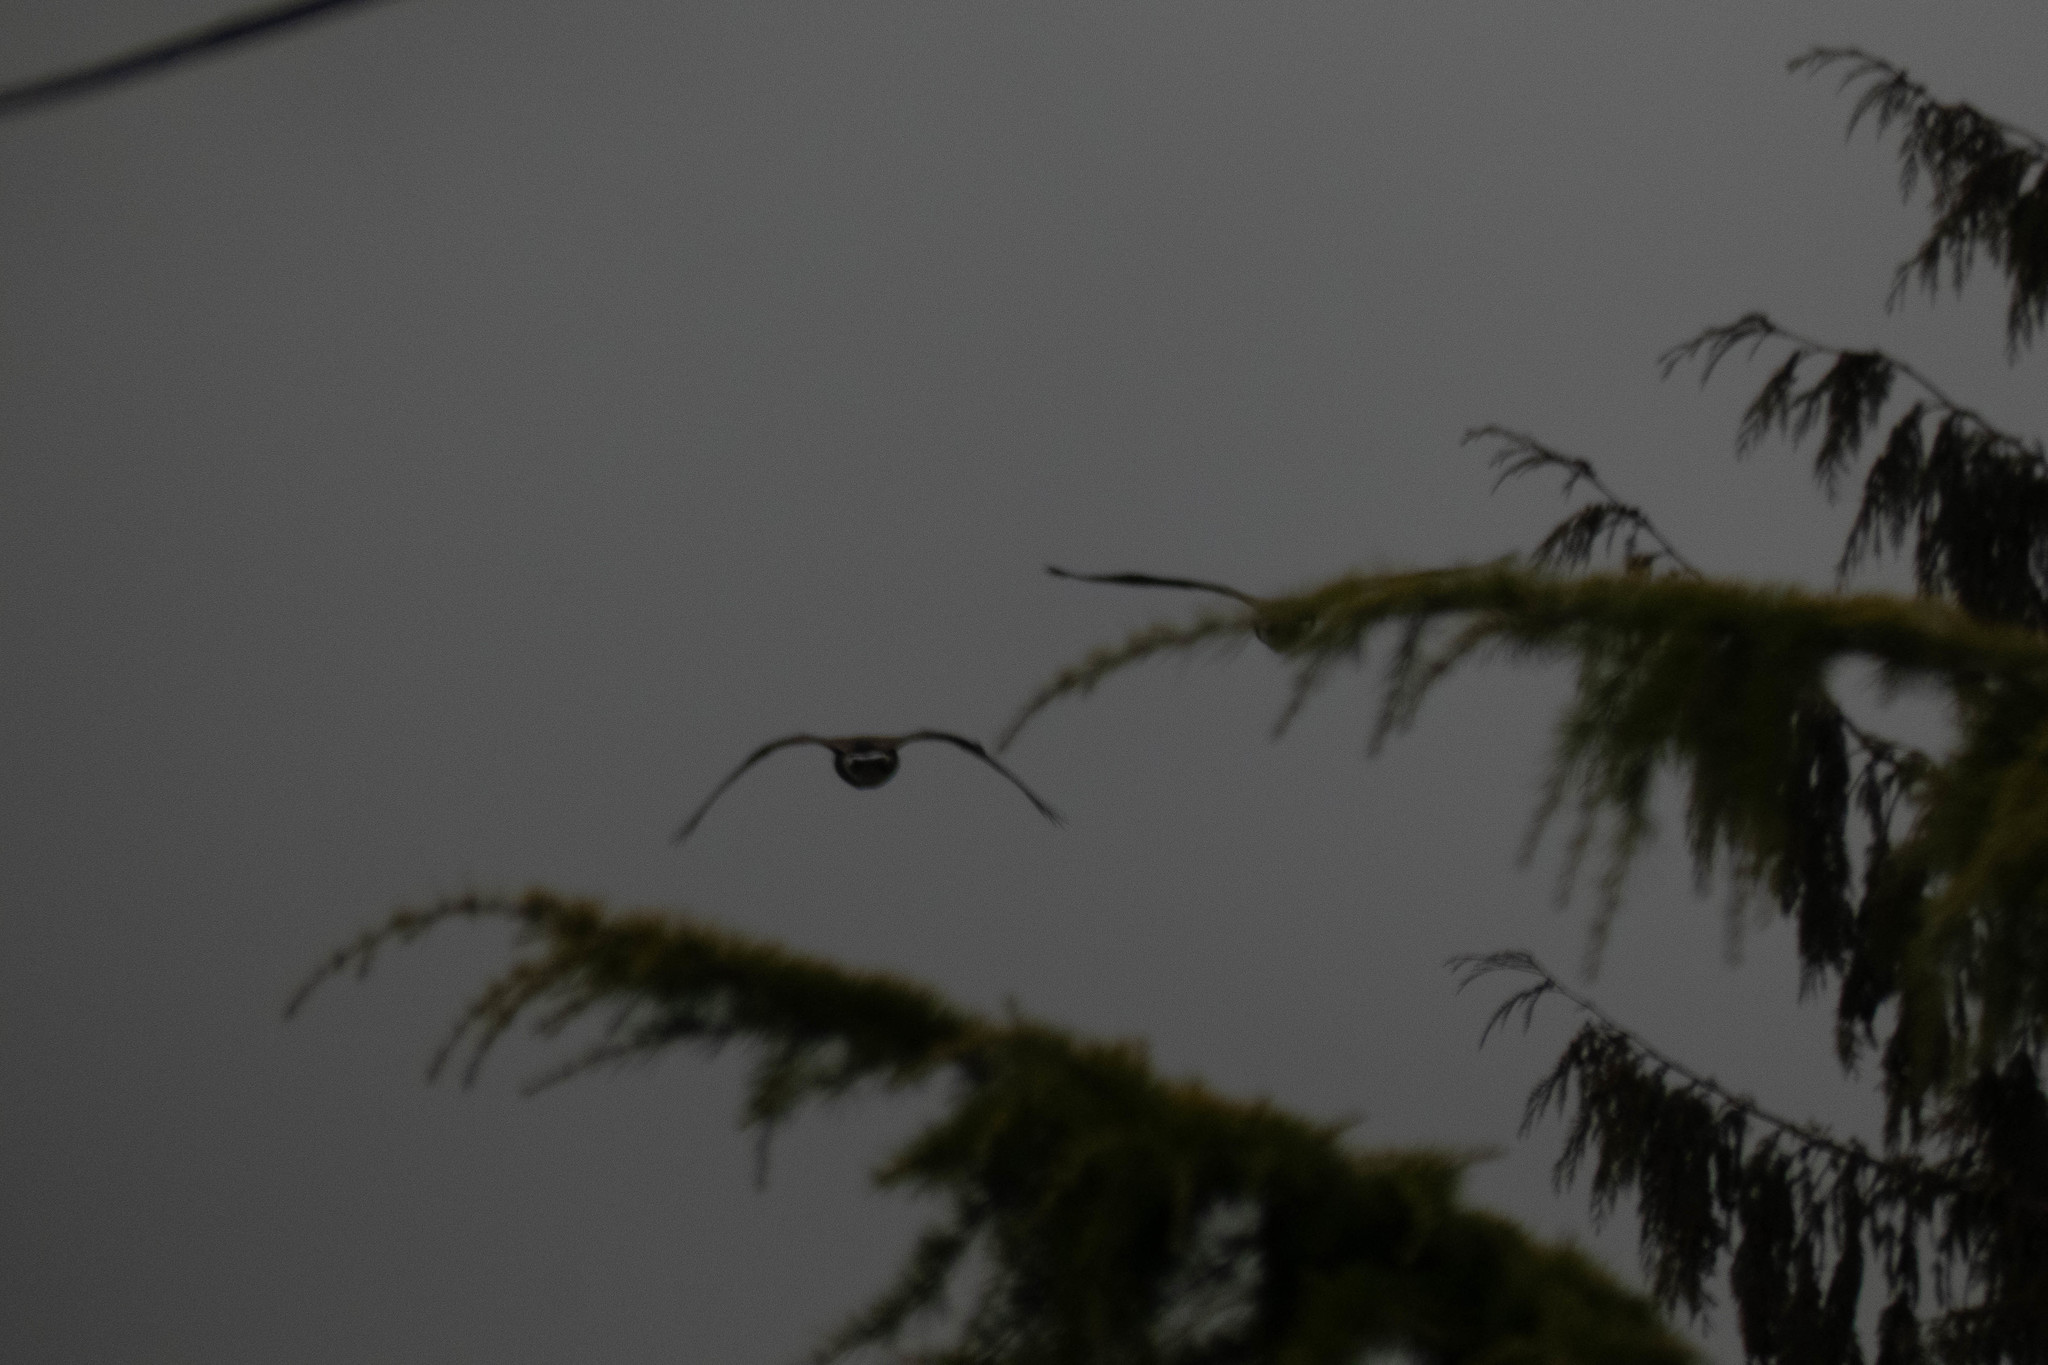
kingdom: Animalia
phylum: Chordata
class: Aves
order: Anseriformes
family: Anatidae
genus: Branta
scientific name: Branta canadensis
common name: Canada goose
